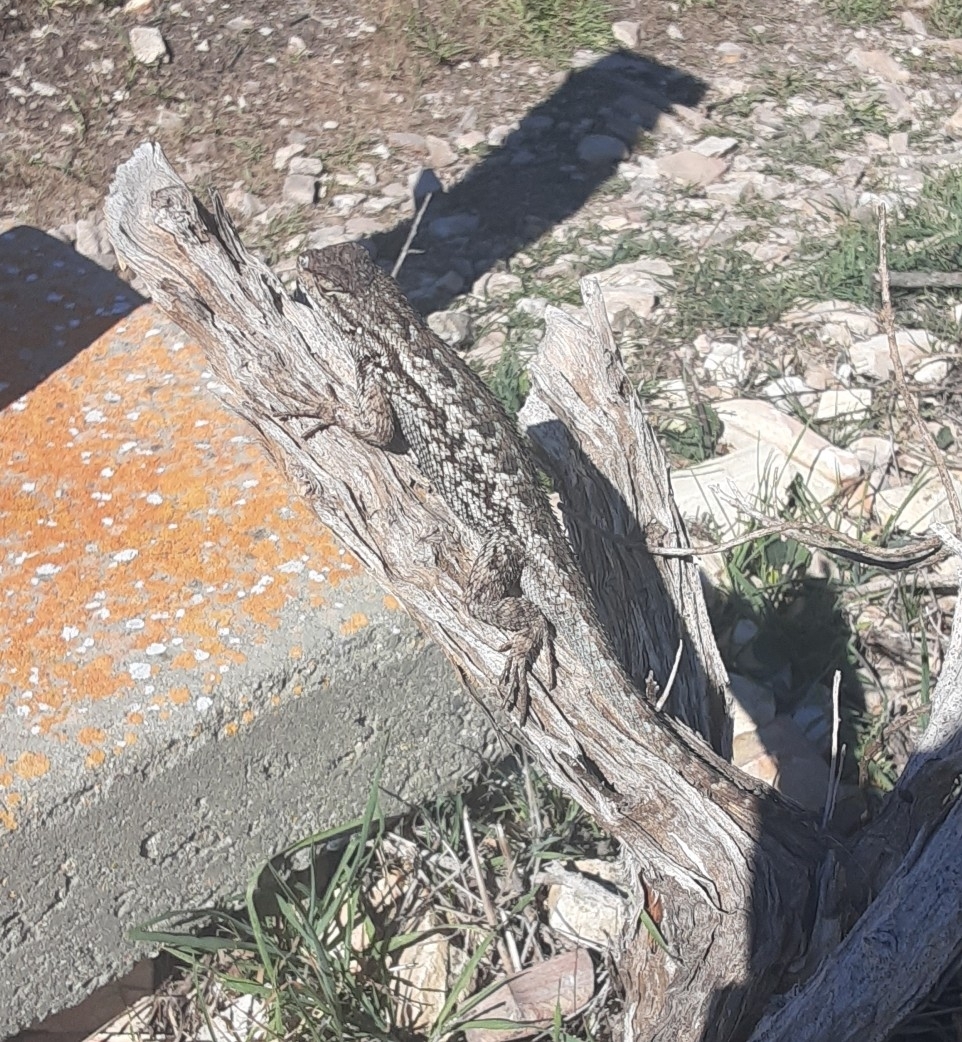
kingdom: Animalia
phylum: Chordata
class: Squamata
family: Phrynosomatidae
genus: Sceloporus
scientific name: Sceloporus occidentalis
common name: Western fence lizard
